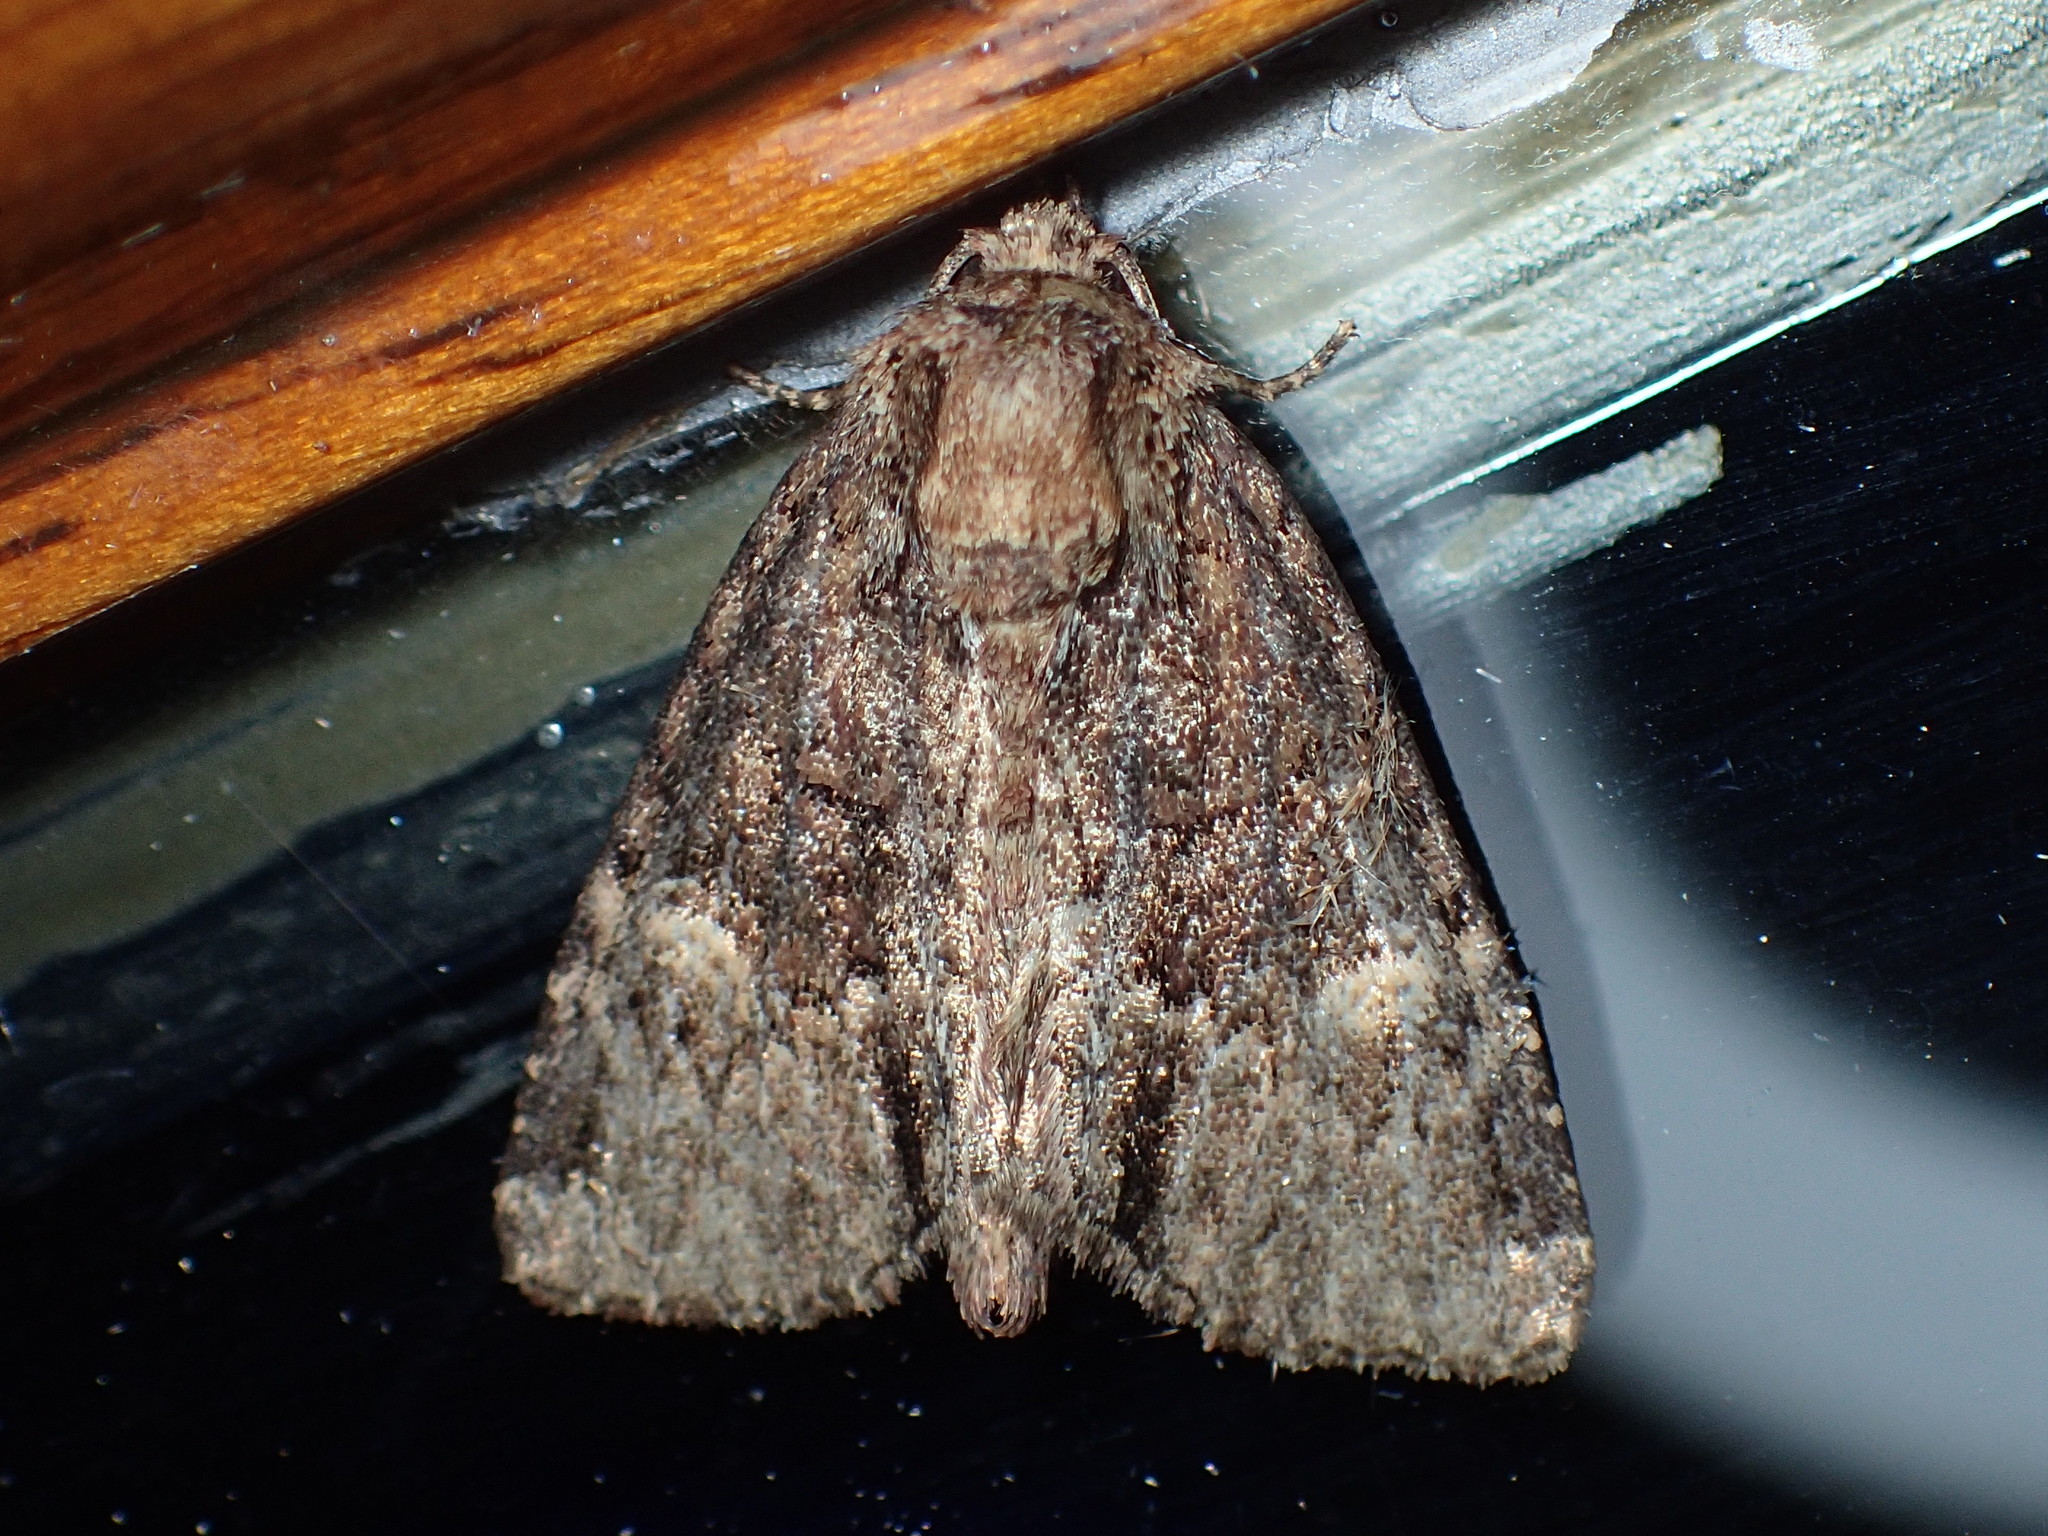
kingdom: Animalia
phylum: Arthropoda
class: Insecta
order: Lepidoptera
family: Noctuidae
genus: Phosphila
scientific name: Phosphila turbulenta
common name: Turbulent phosphila moth
